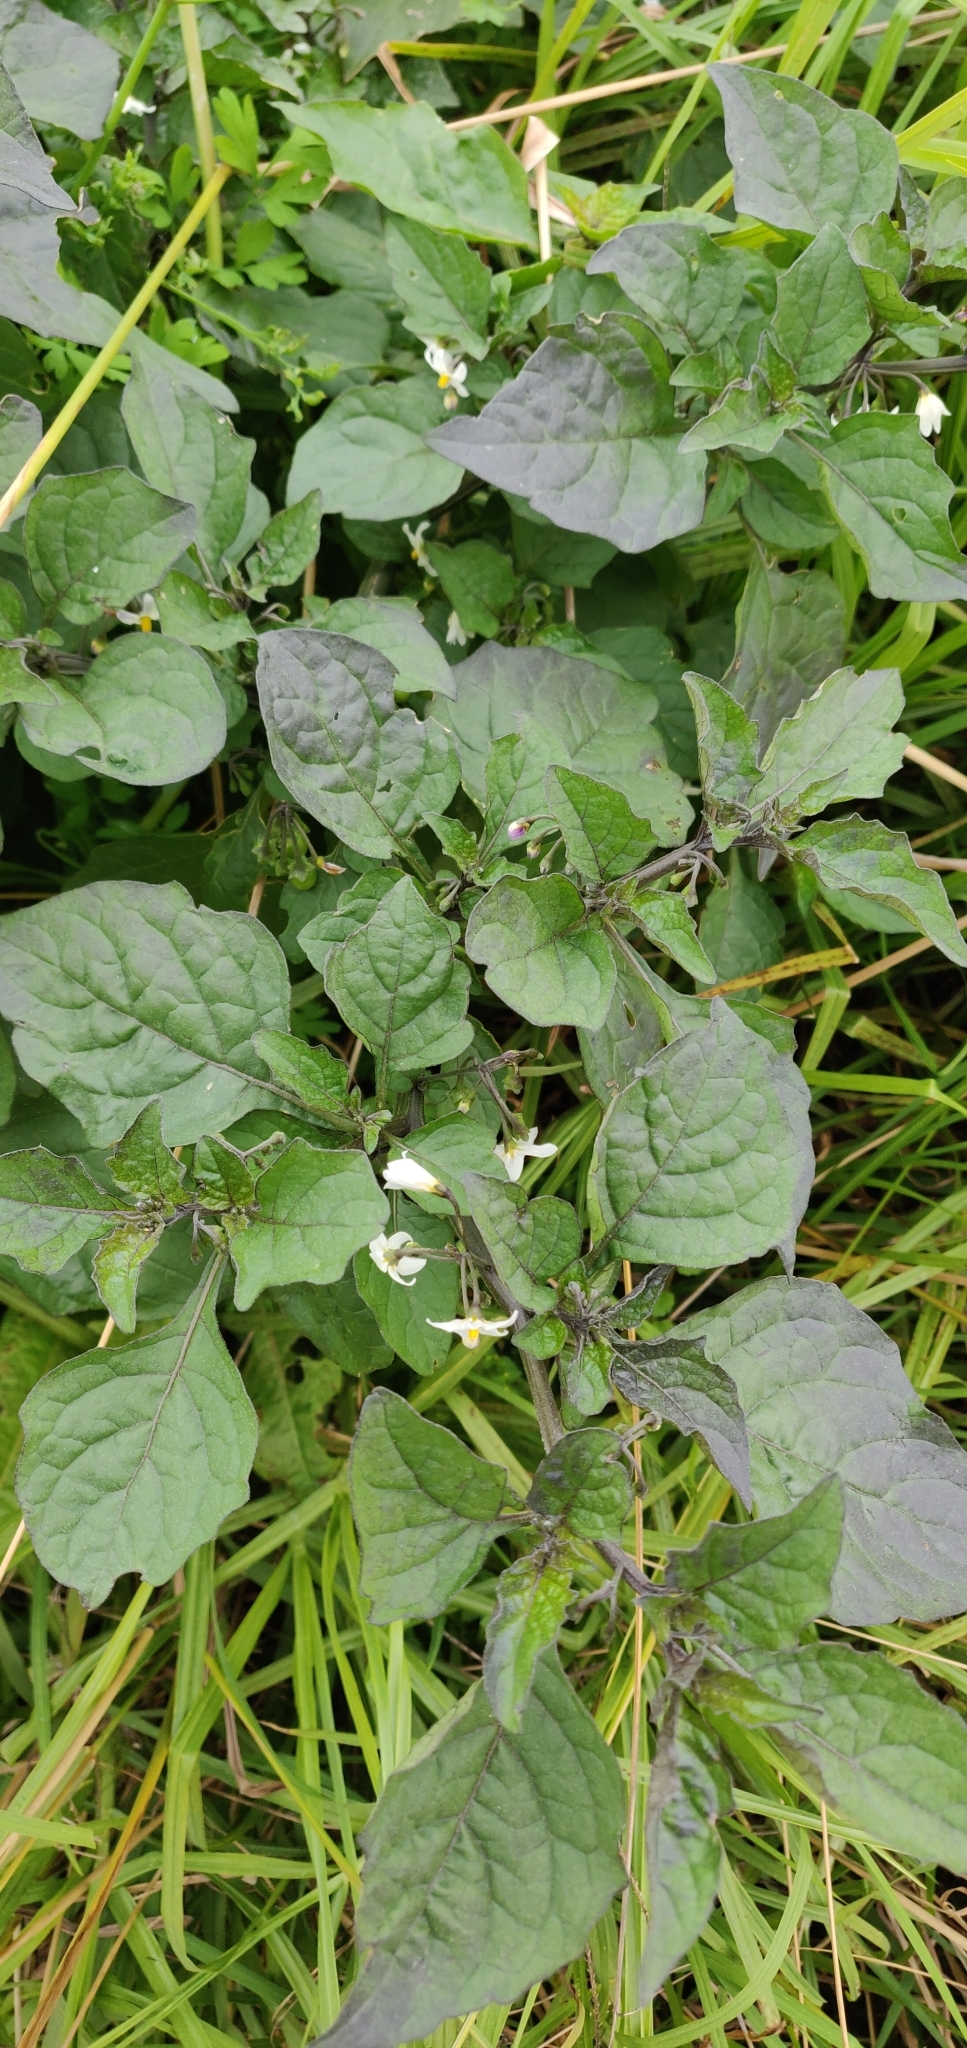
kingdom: Plantae
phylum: Tracheophyta
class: Magnoliopsida
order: Solanales
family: Solanaceae
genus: Solanum
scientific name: Solanum nigrum
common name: Black nightshade
